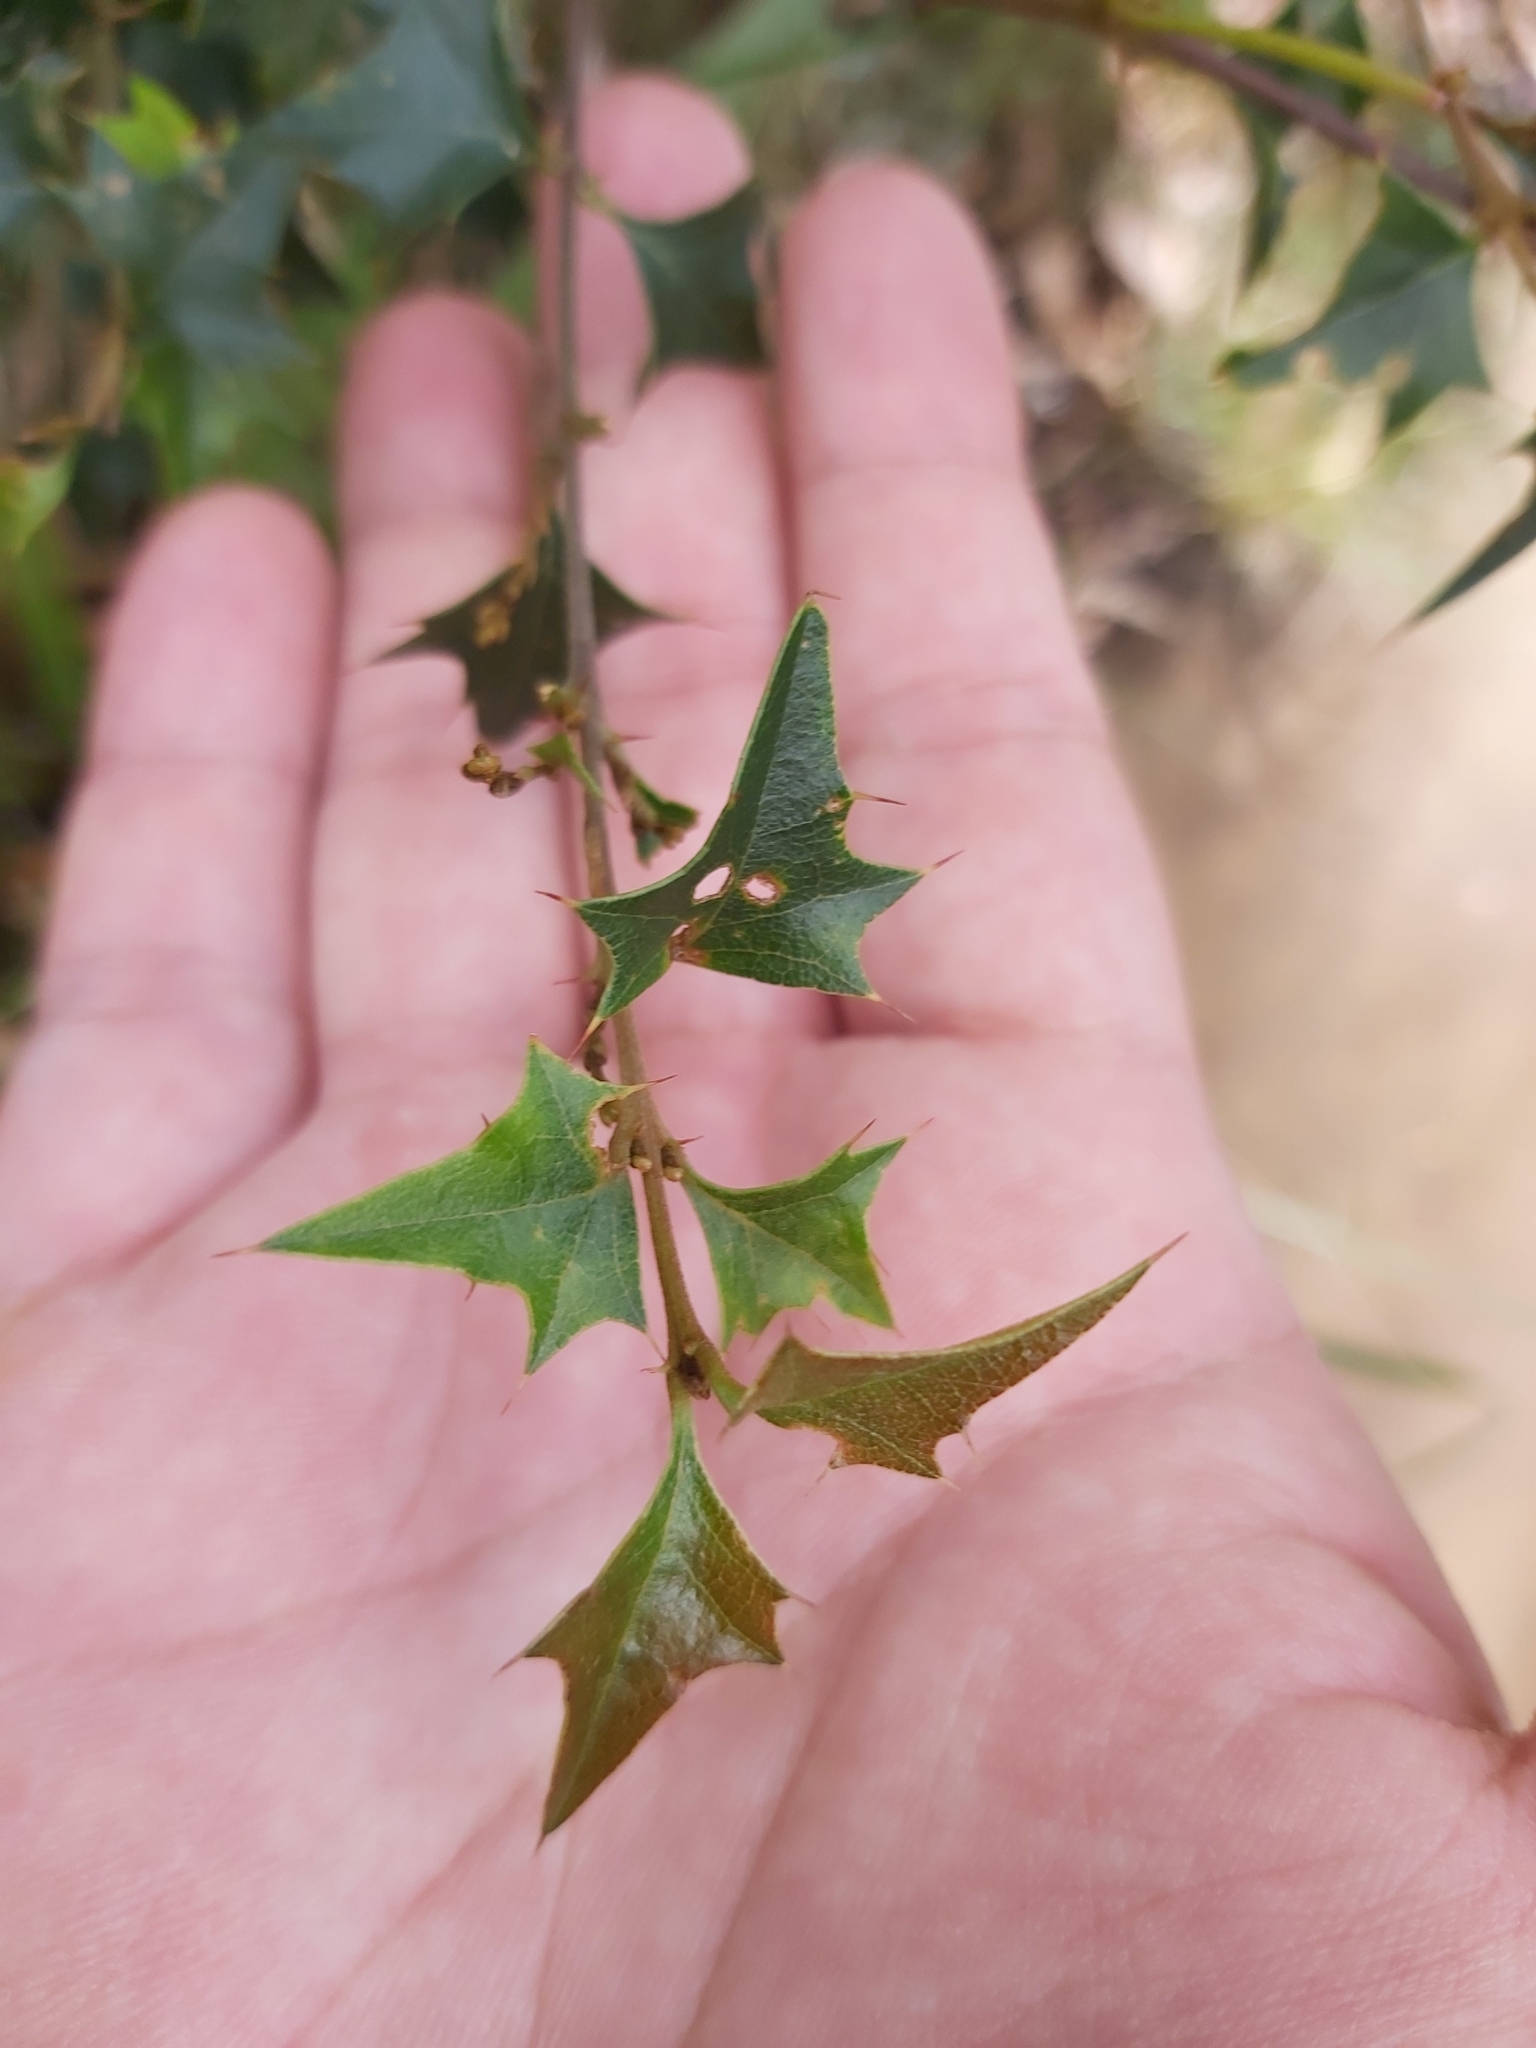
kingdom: Plantae
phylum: Tracheophyta
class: Magnoliopsida
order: Fabales
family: Fabaceae
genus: Podolobium
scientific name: Podolobium ilicifolium
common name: Native holly
